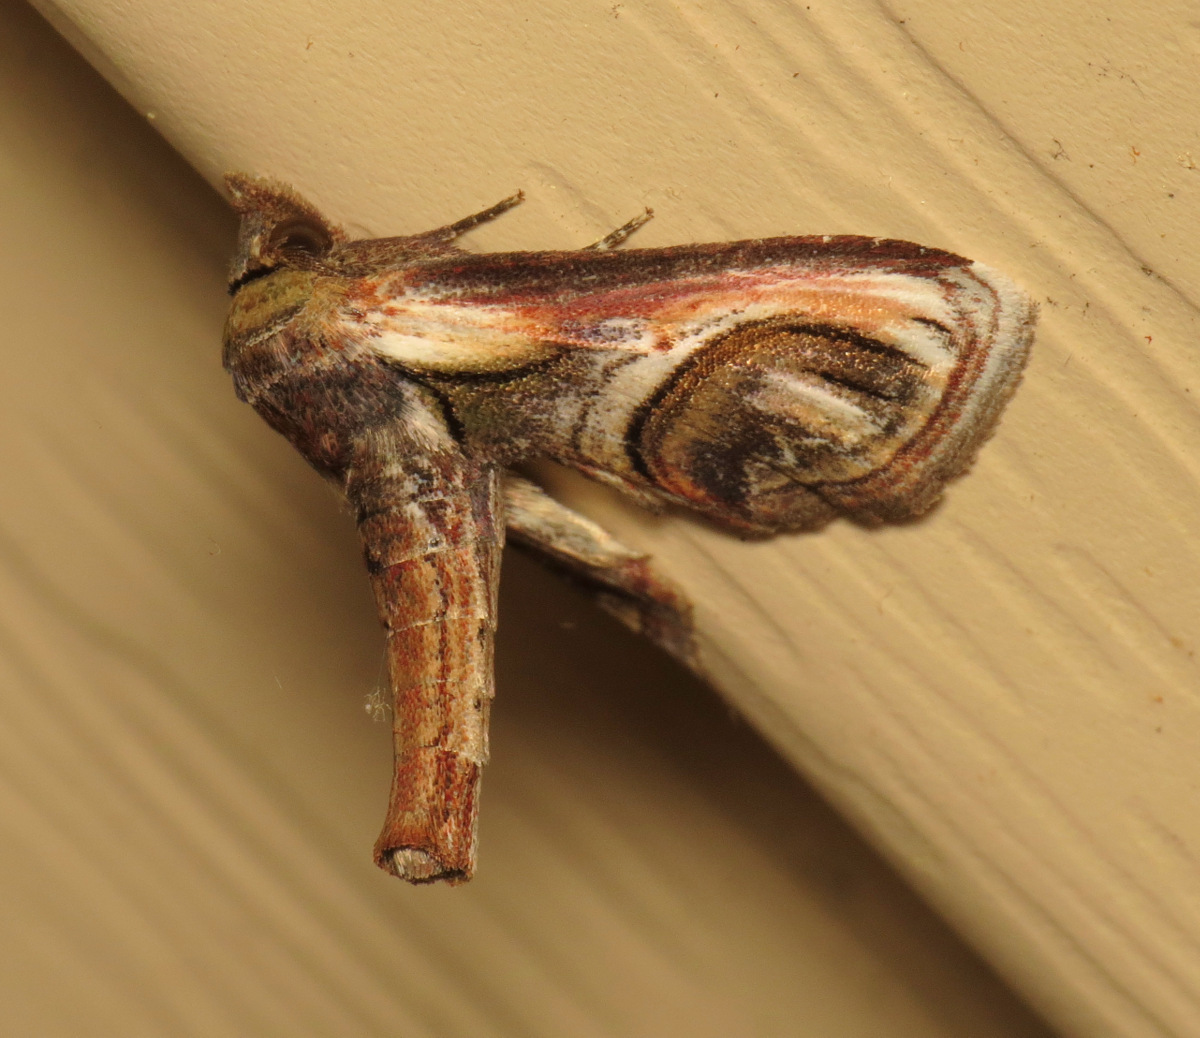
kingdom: Animalia
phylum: Arthropoda
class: Insecta
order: Lepidoptera
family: Euteliidae
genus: Paectes
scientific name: Paectes oculatrix
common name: Eyed paectes moth
